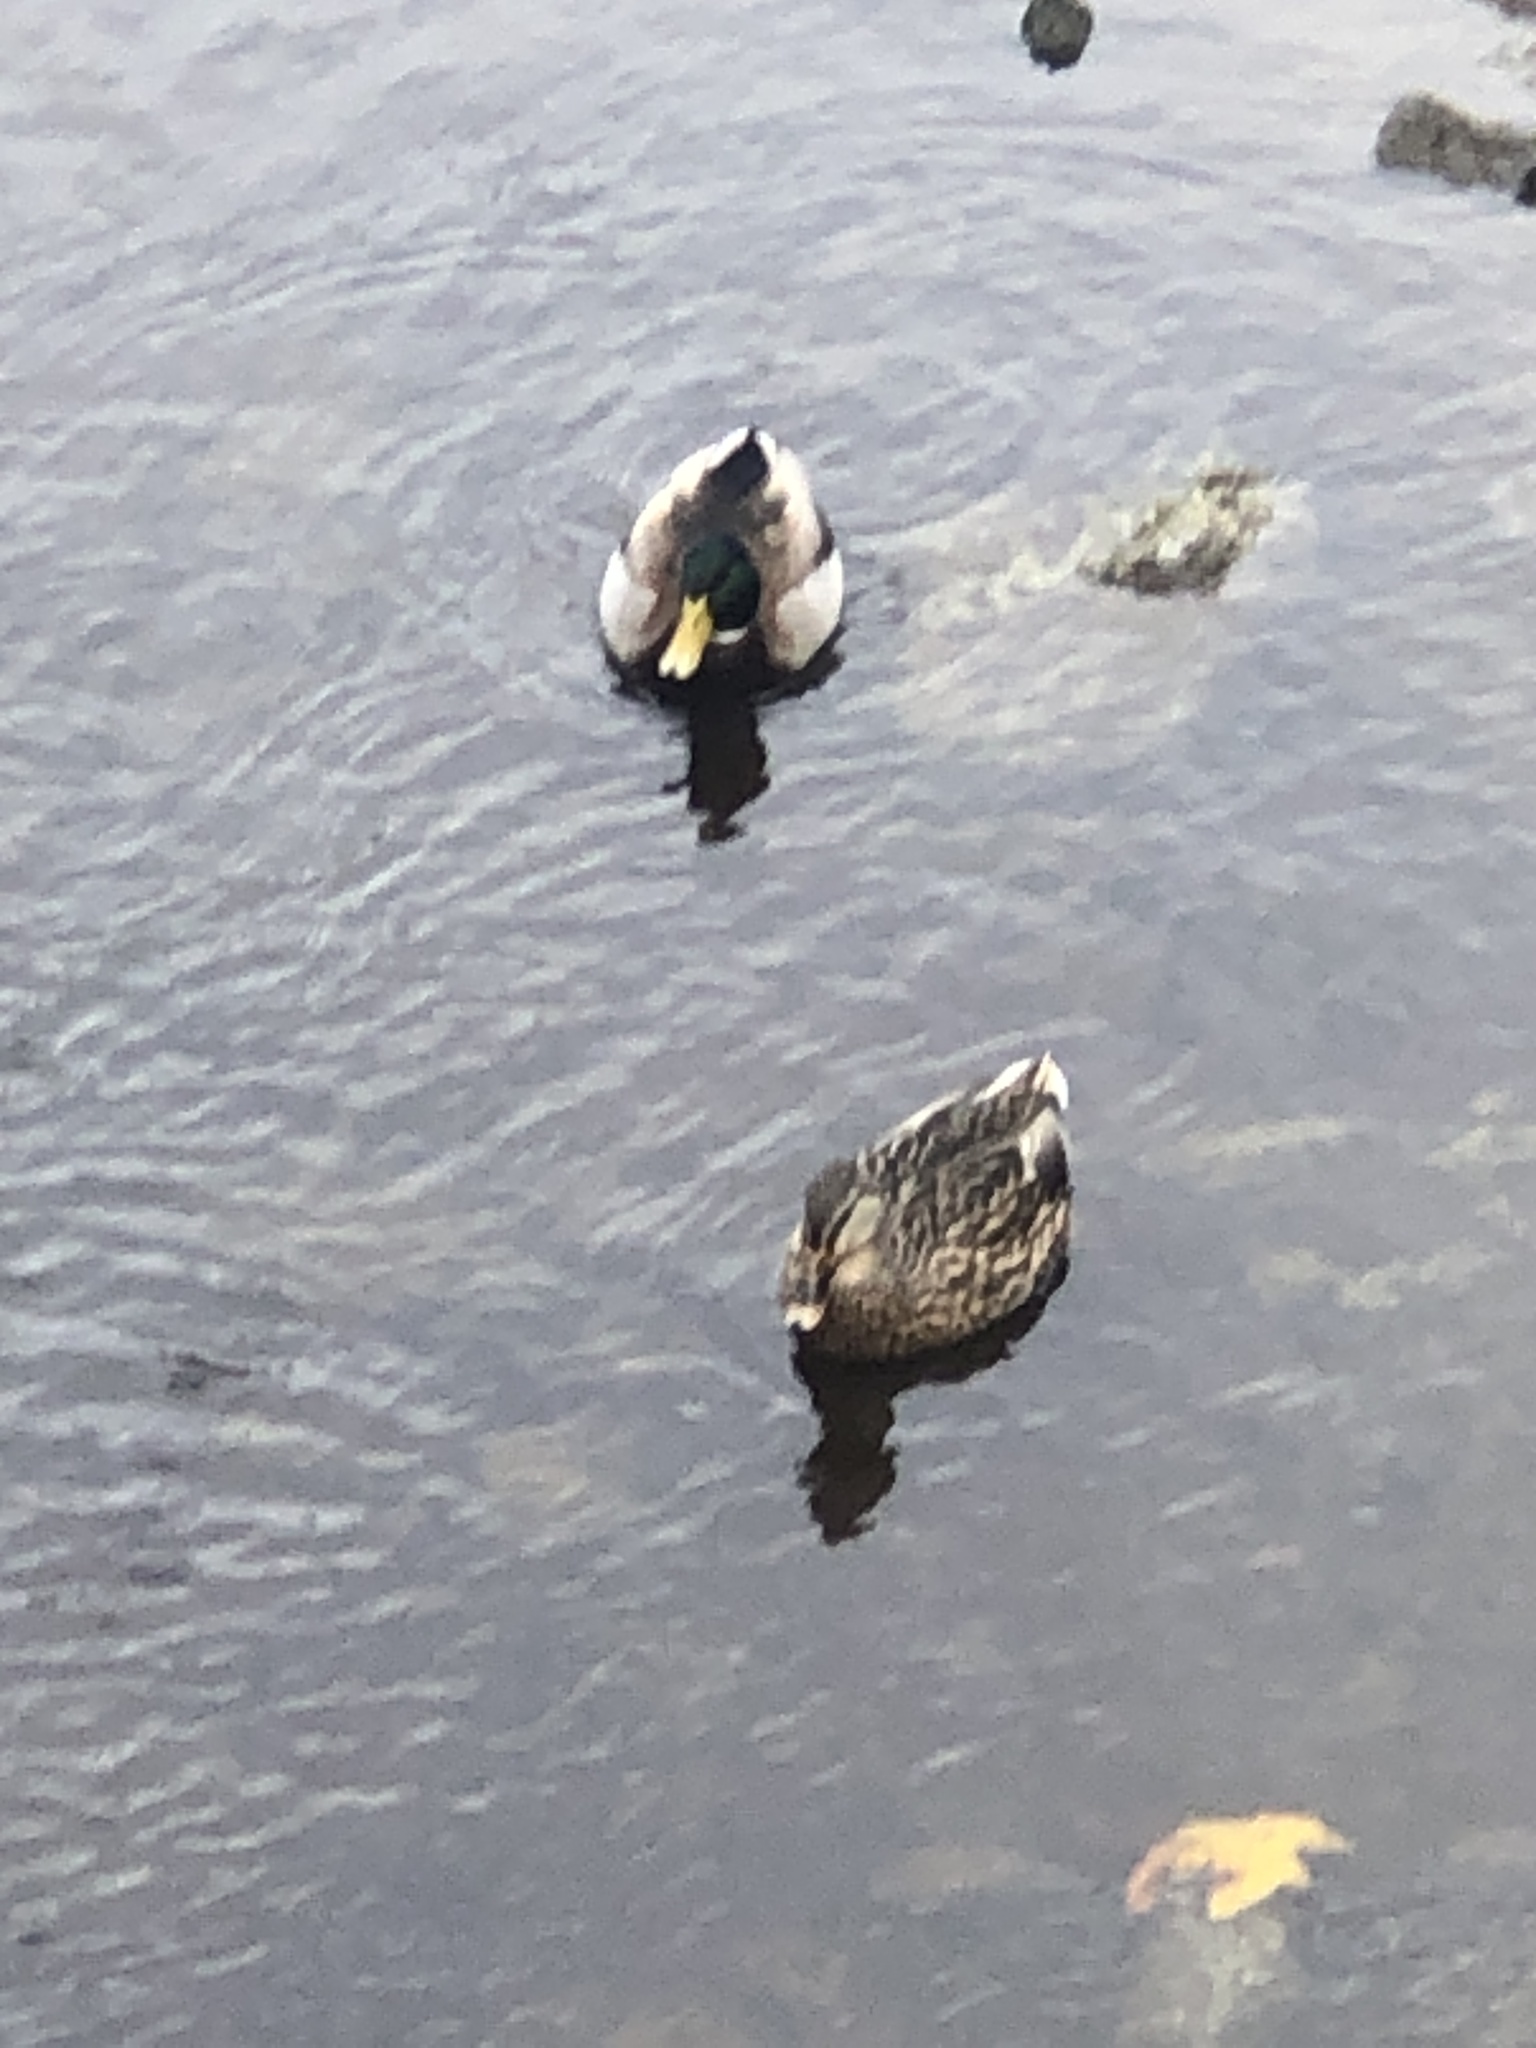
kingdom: Animalia
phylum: Chordata
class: Aves
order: Anseriformes
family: Anatidae
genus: Anas
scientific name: Anas platyrhynchos
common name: Mallard
